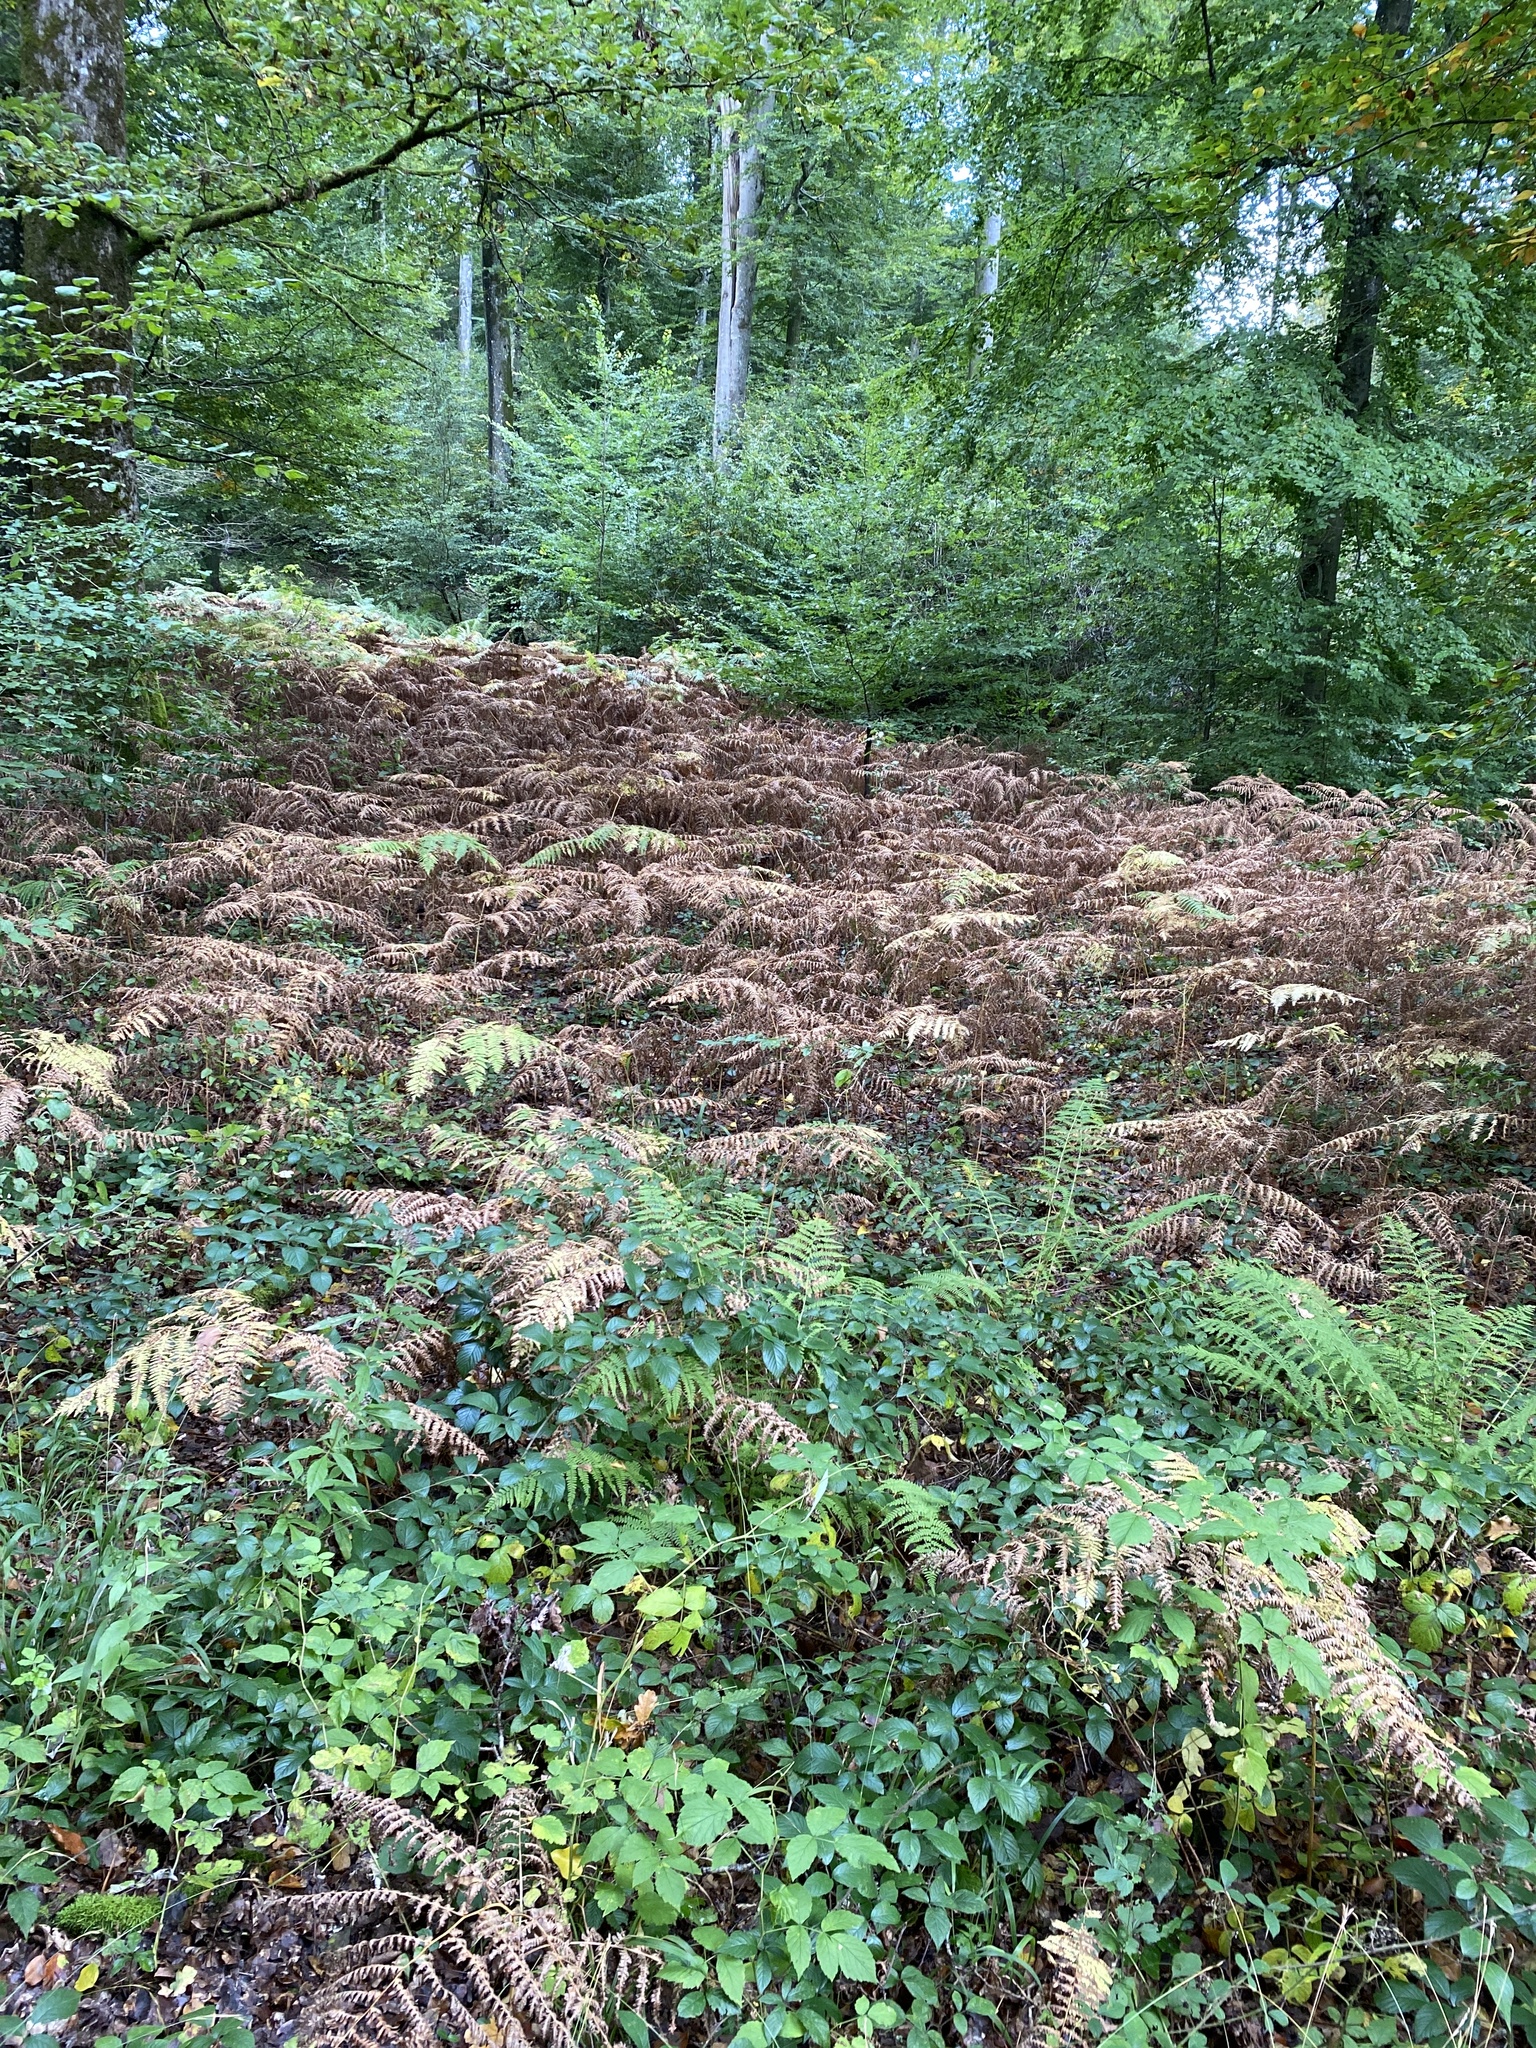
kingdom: Plantae
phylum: Tracheophyta
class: Polypodiopsida
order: Polypodiales
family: Dennstaedtiaceae
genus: Pteridium
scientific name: Pteridium aquilinum
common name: Bracken
